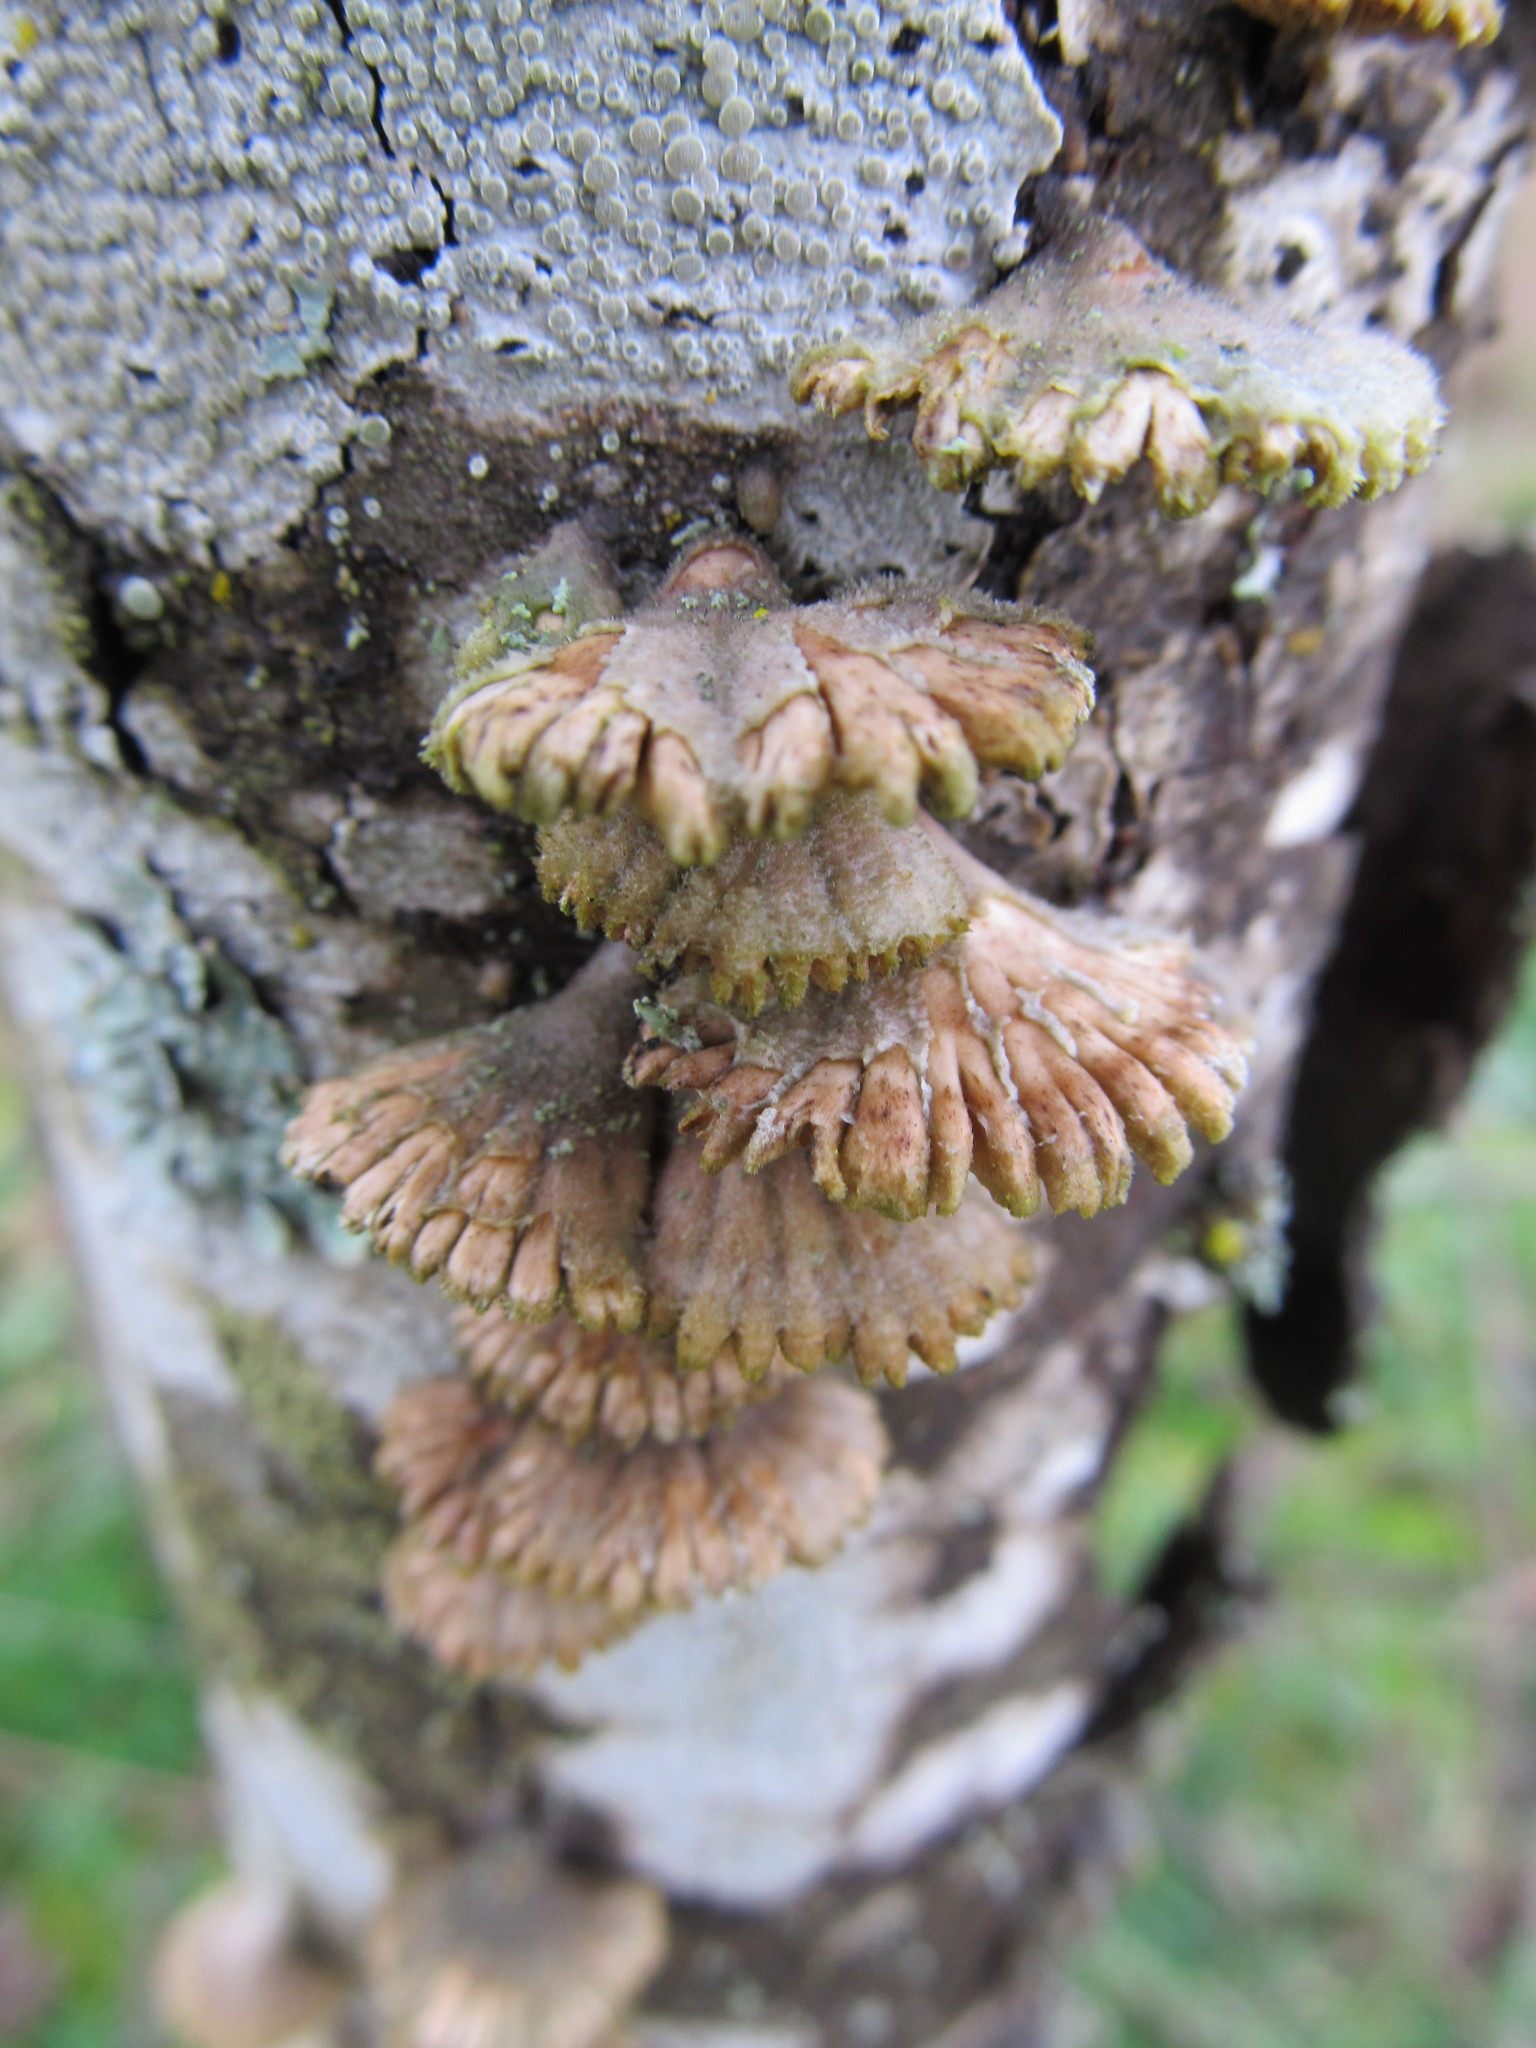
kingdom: Fungi
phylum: Basidiomycota
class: Agaricomycetes
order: Agaricales
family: Schizophyllaceae
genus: Schizophyllum
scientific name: Schizophyllum commune
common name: Common porecrust
